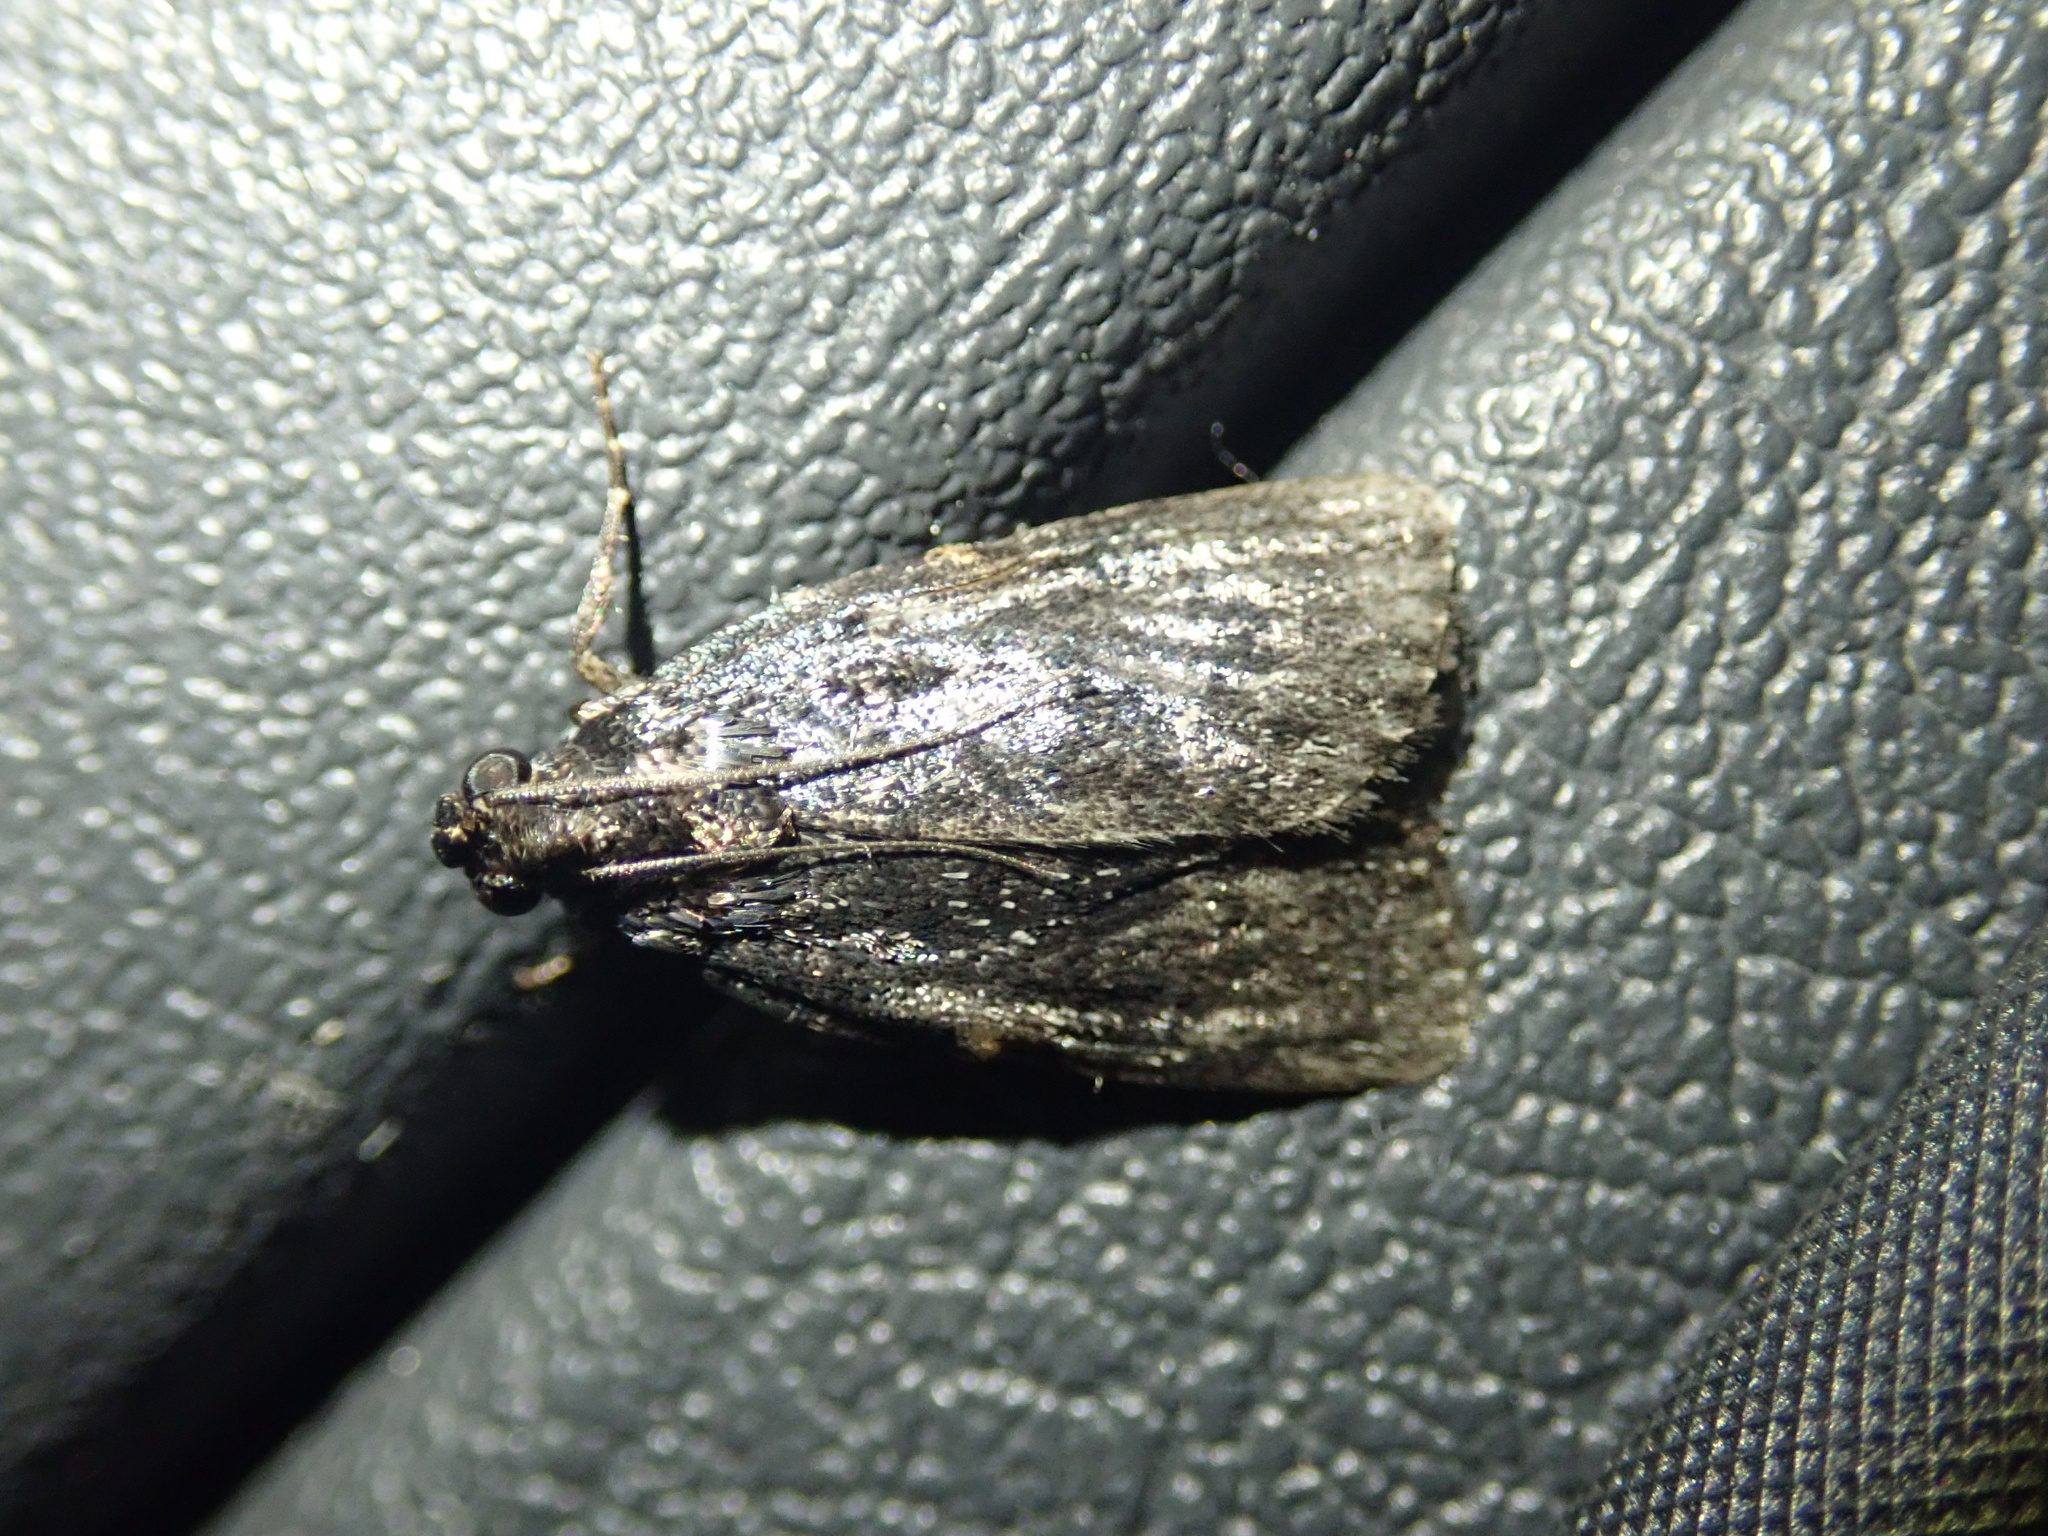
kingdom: Animalia
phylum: Arthropoda
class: Insecta
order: Lepidoptera
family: Pyralidae
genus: Stericta
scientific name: Stericta carbonalis
